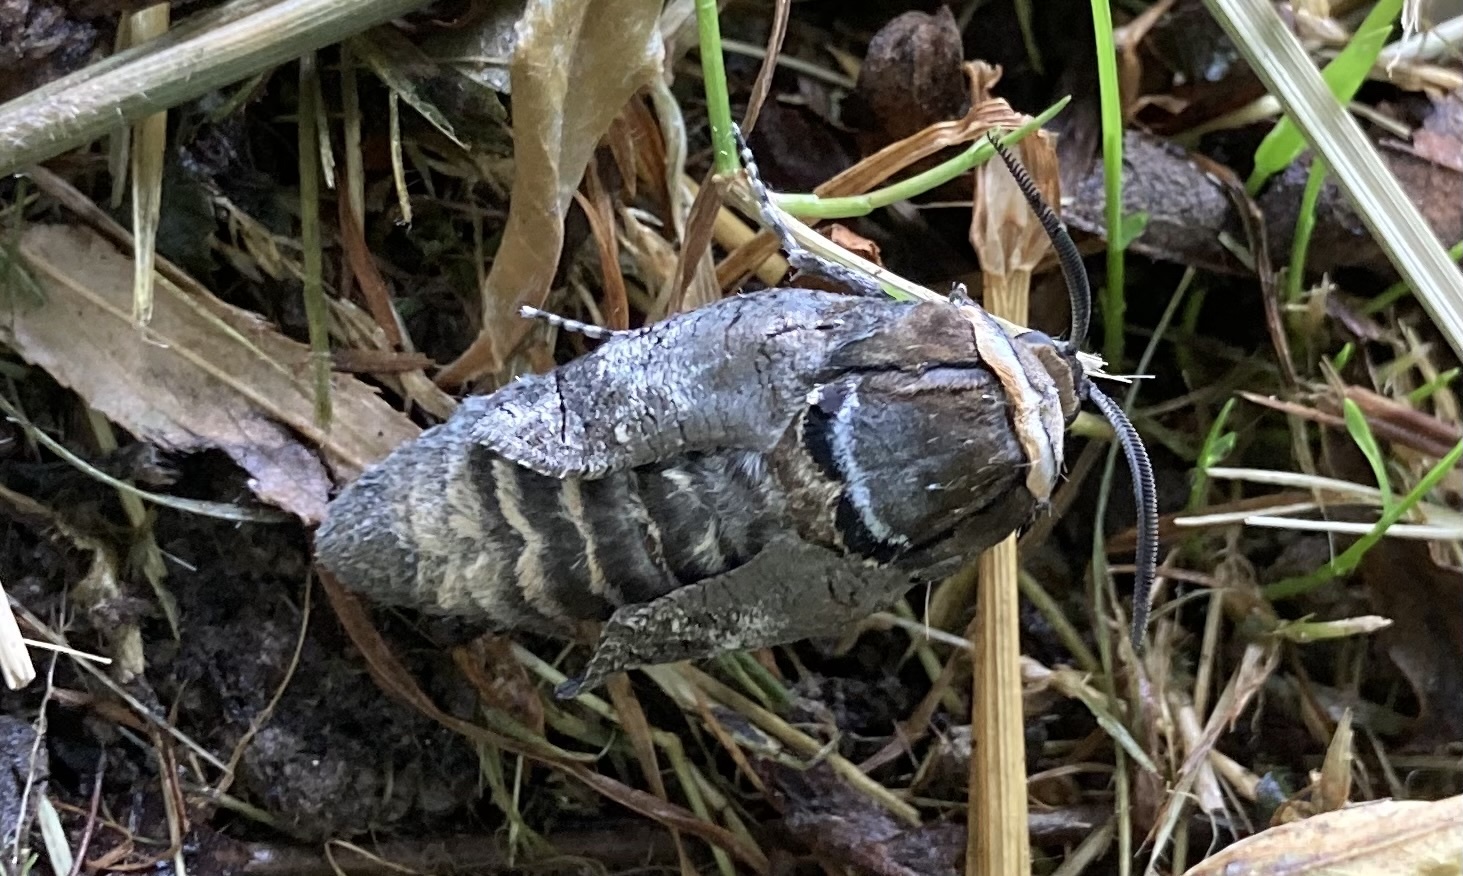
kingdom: Animalia
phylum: Arthropoda
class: Insecta
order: Lepidoptera
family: Cossidae
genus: Cossus
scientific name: Cossus cossus
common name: Goat moth
